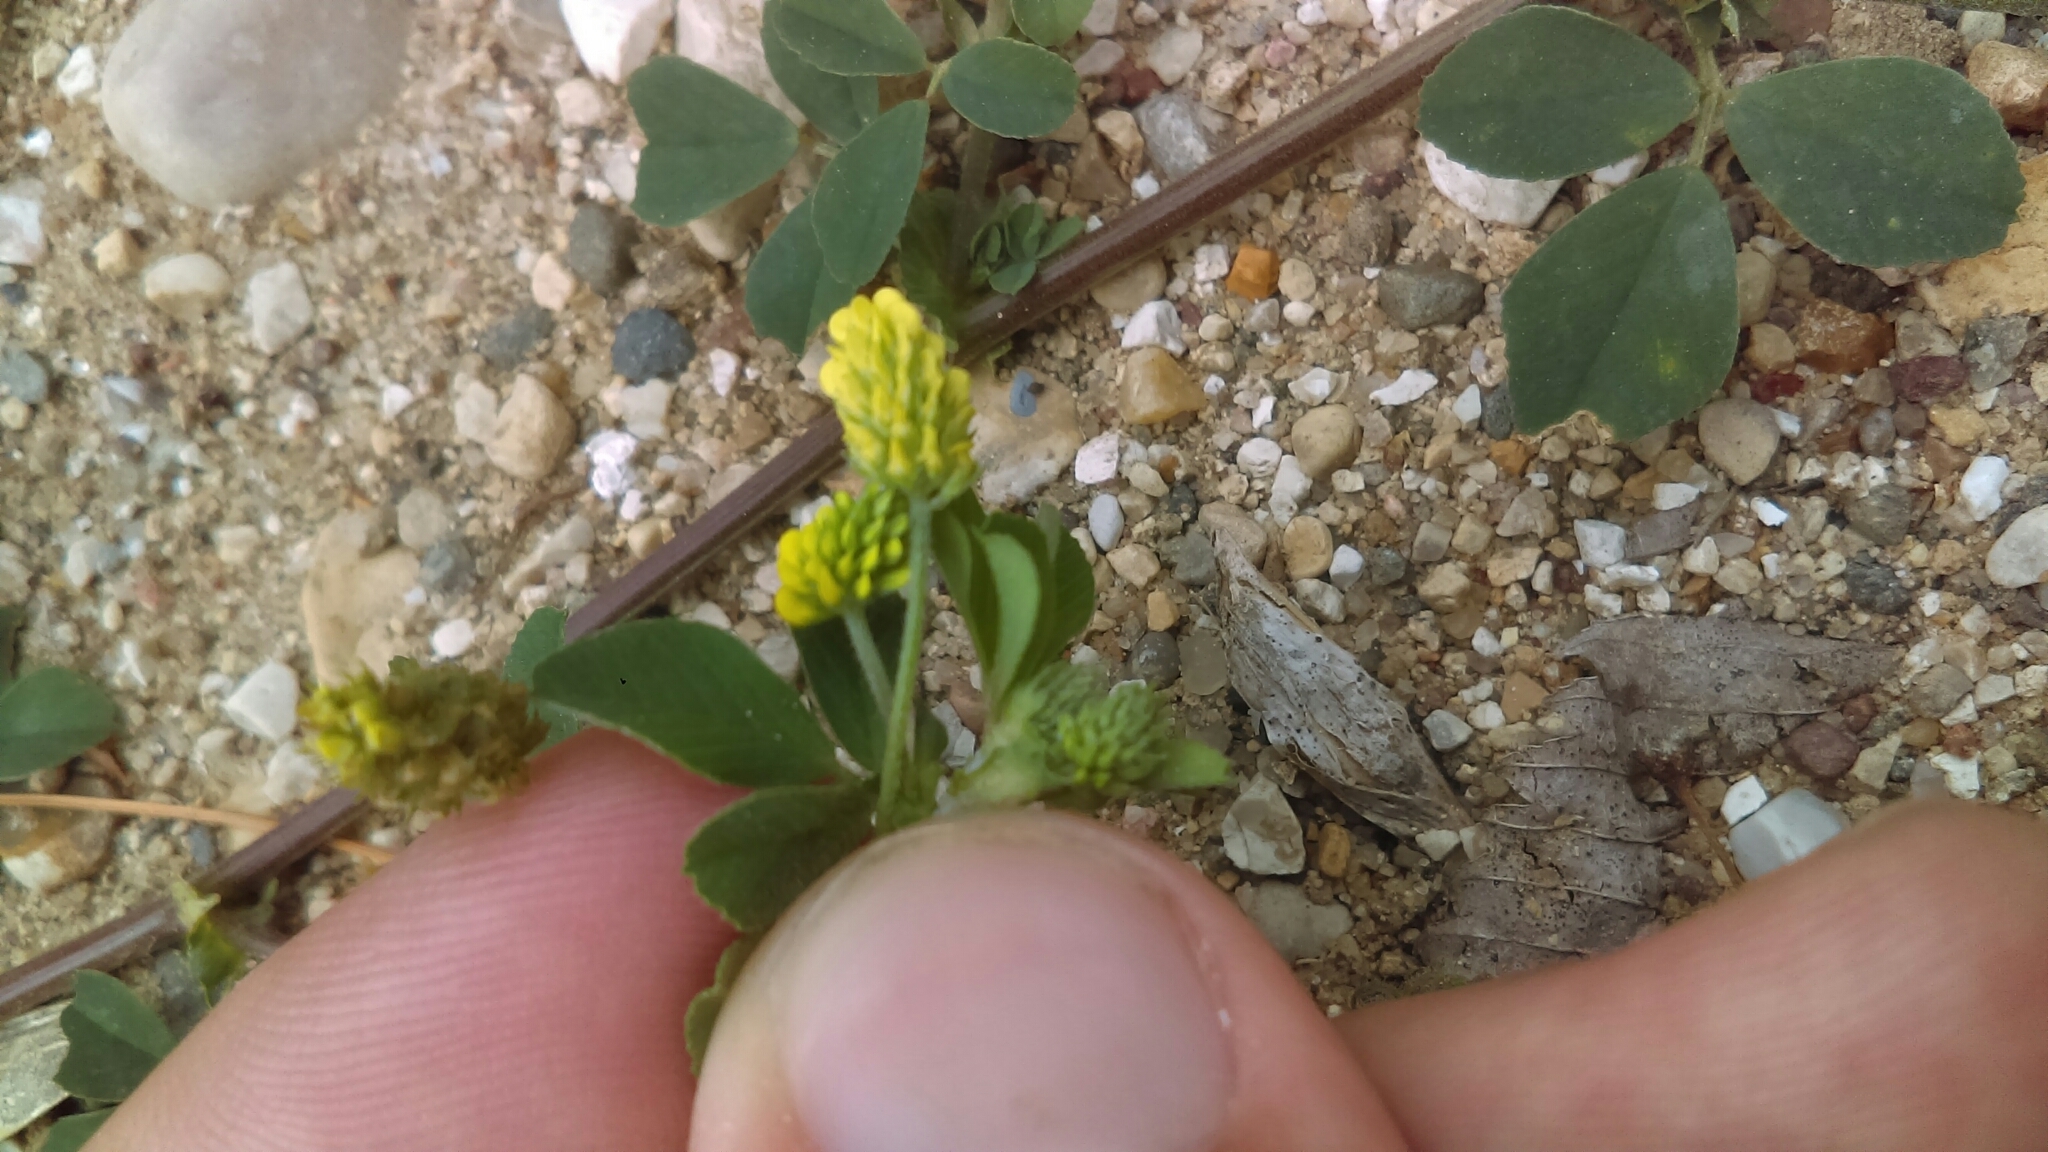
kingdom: Plantae
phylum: Tracheophyta
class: Magnoliopsida
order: Fabales
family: Fabaceae
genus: Medicago
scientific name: Medicago lupulina
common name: Black medick
